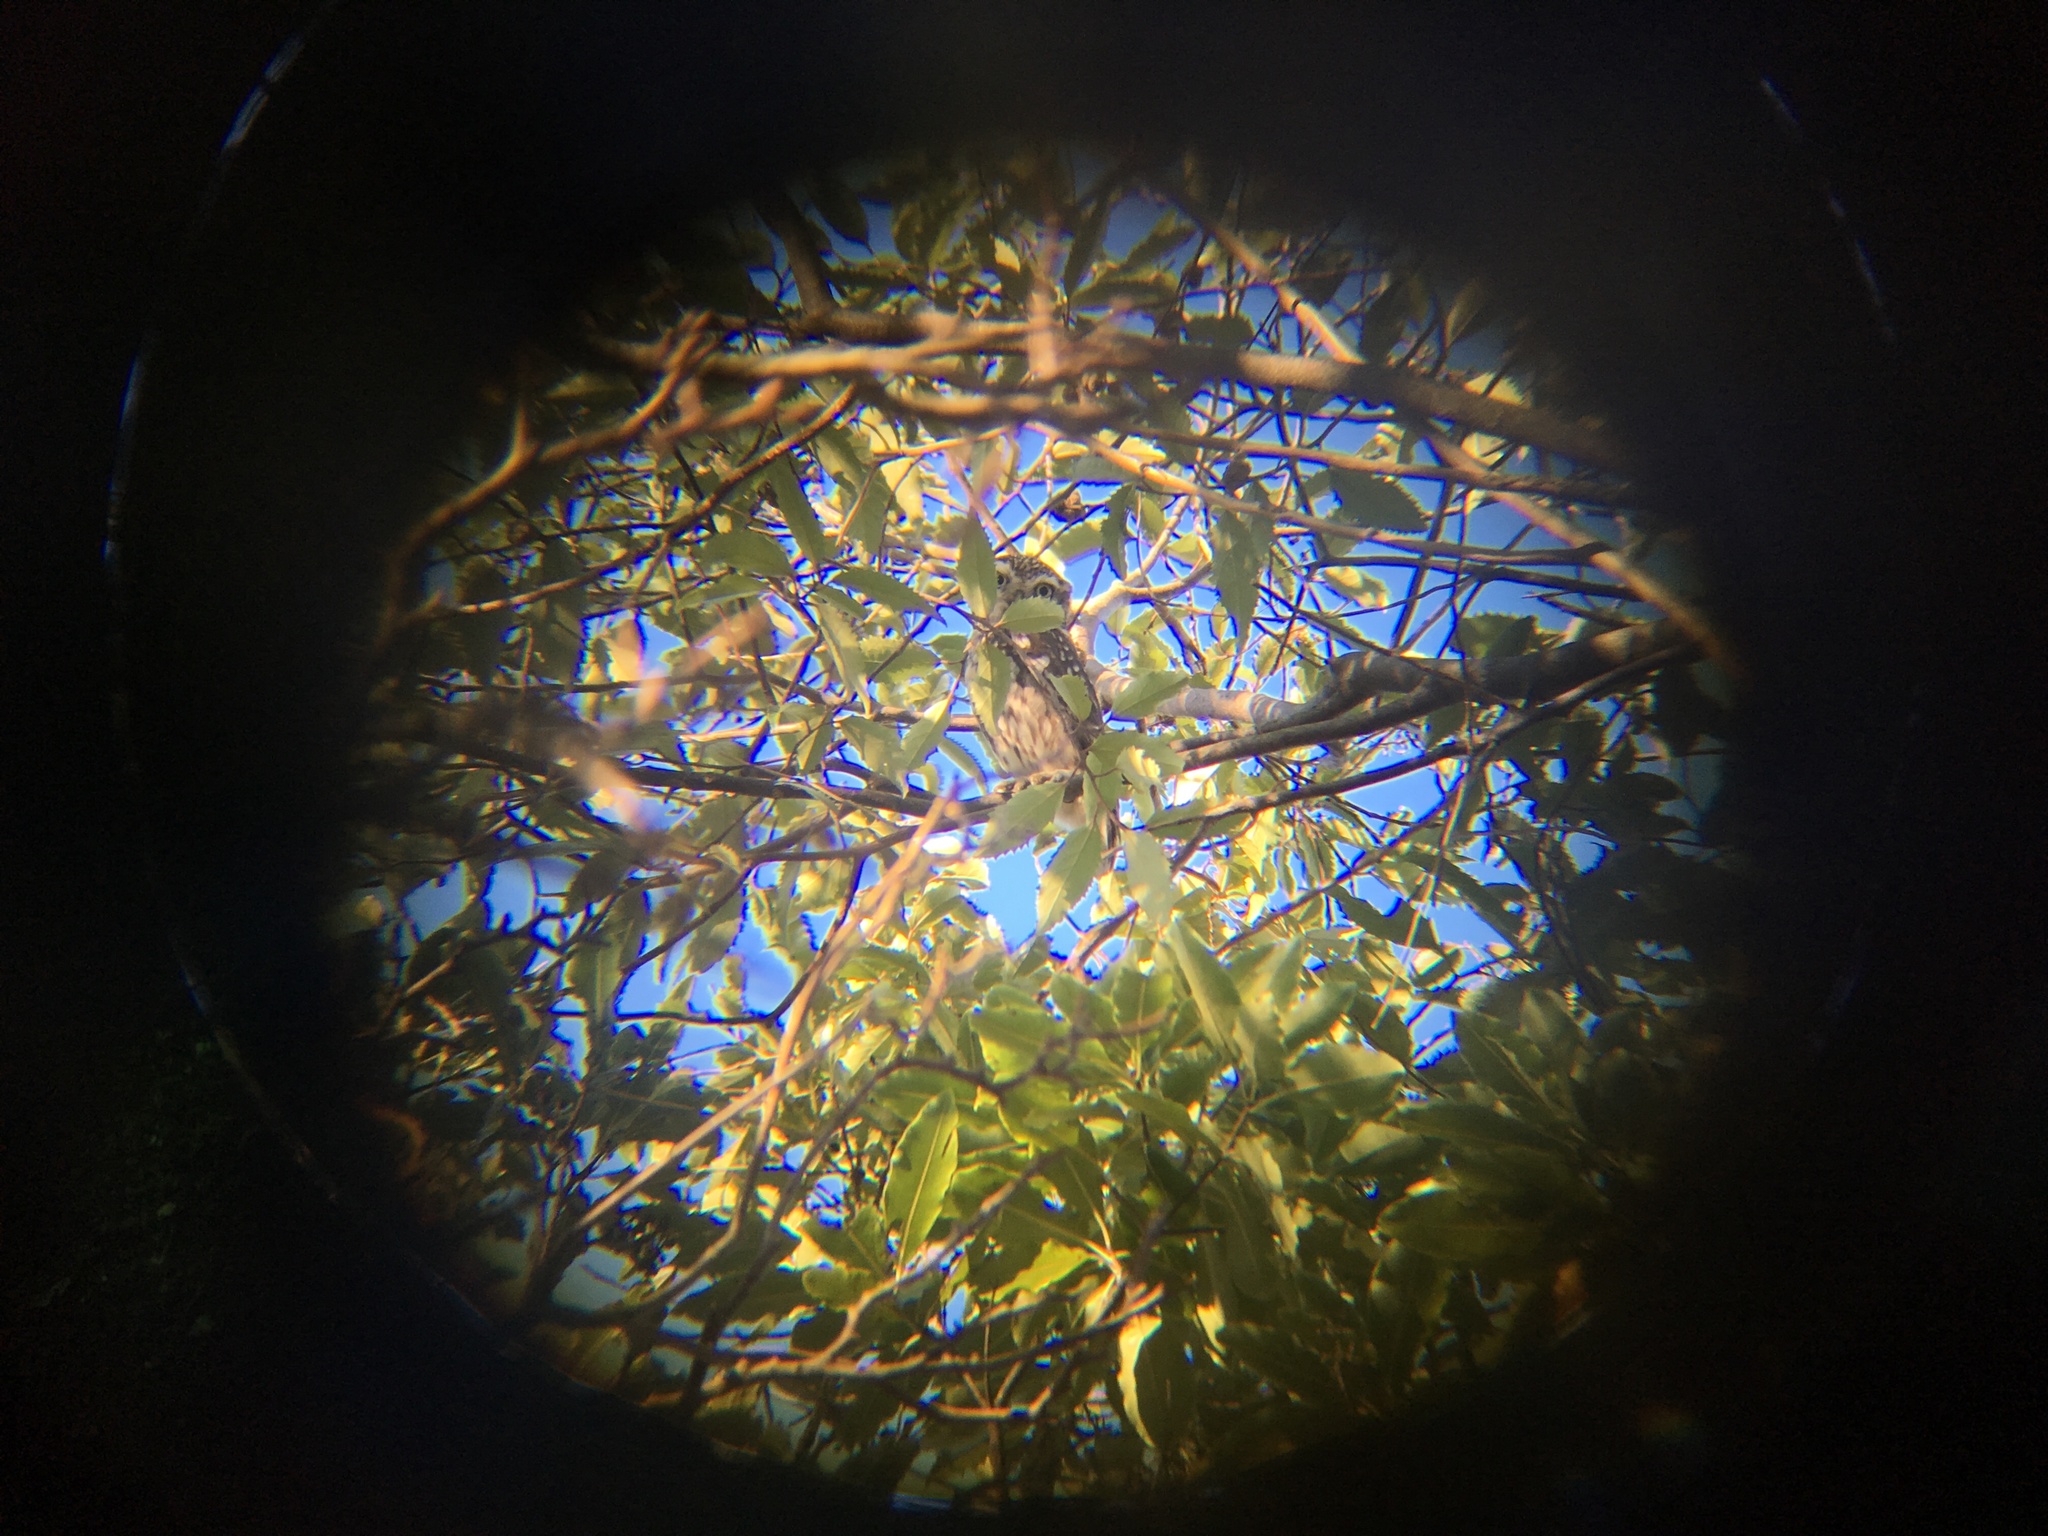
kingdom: Animalia
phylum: Chordata
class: Aves
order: Strigiformes
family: Strigidae
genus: Athene
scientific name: Athene noctua
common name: Little owl
